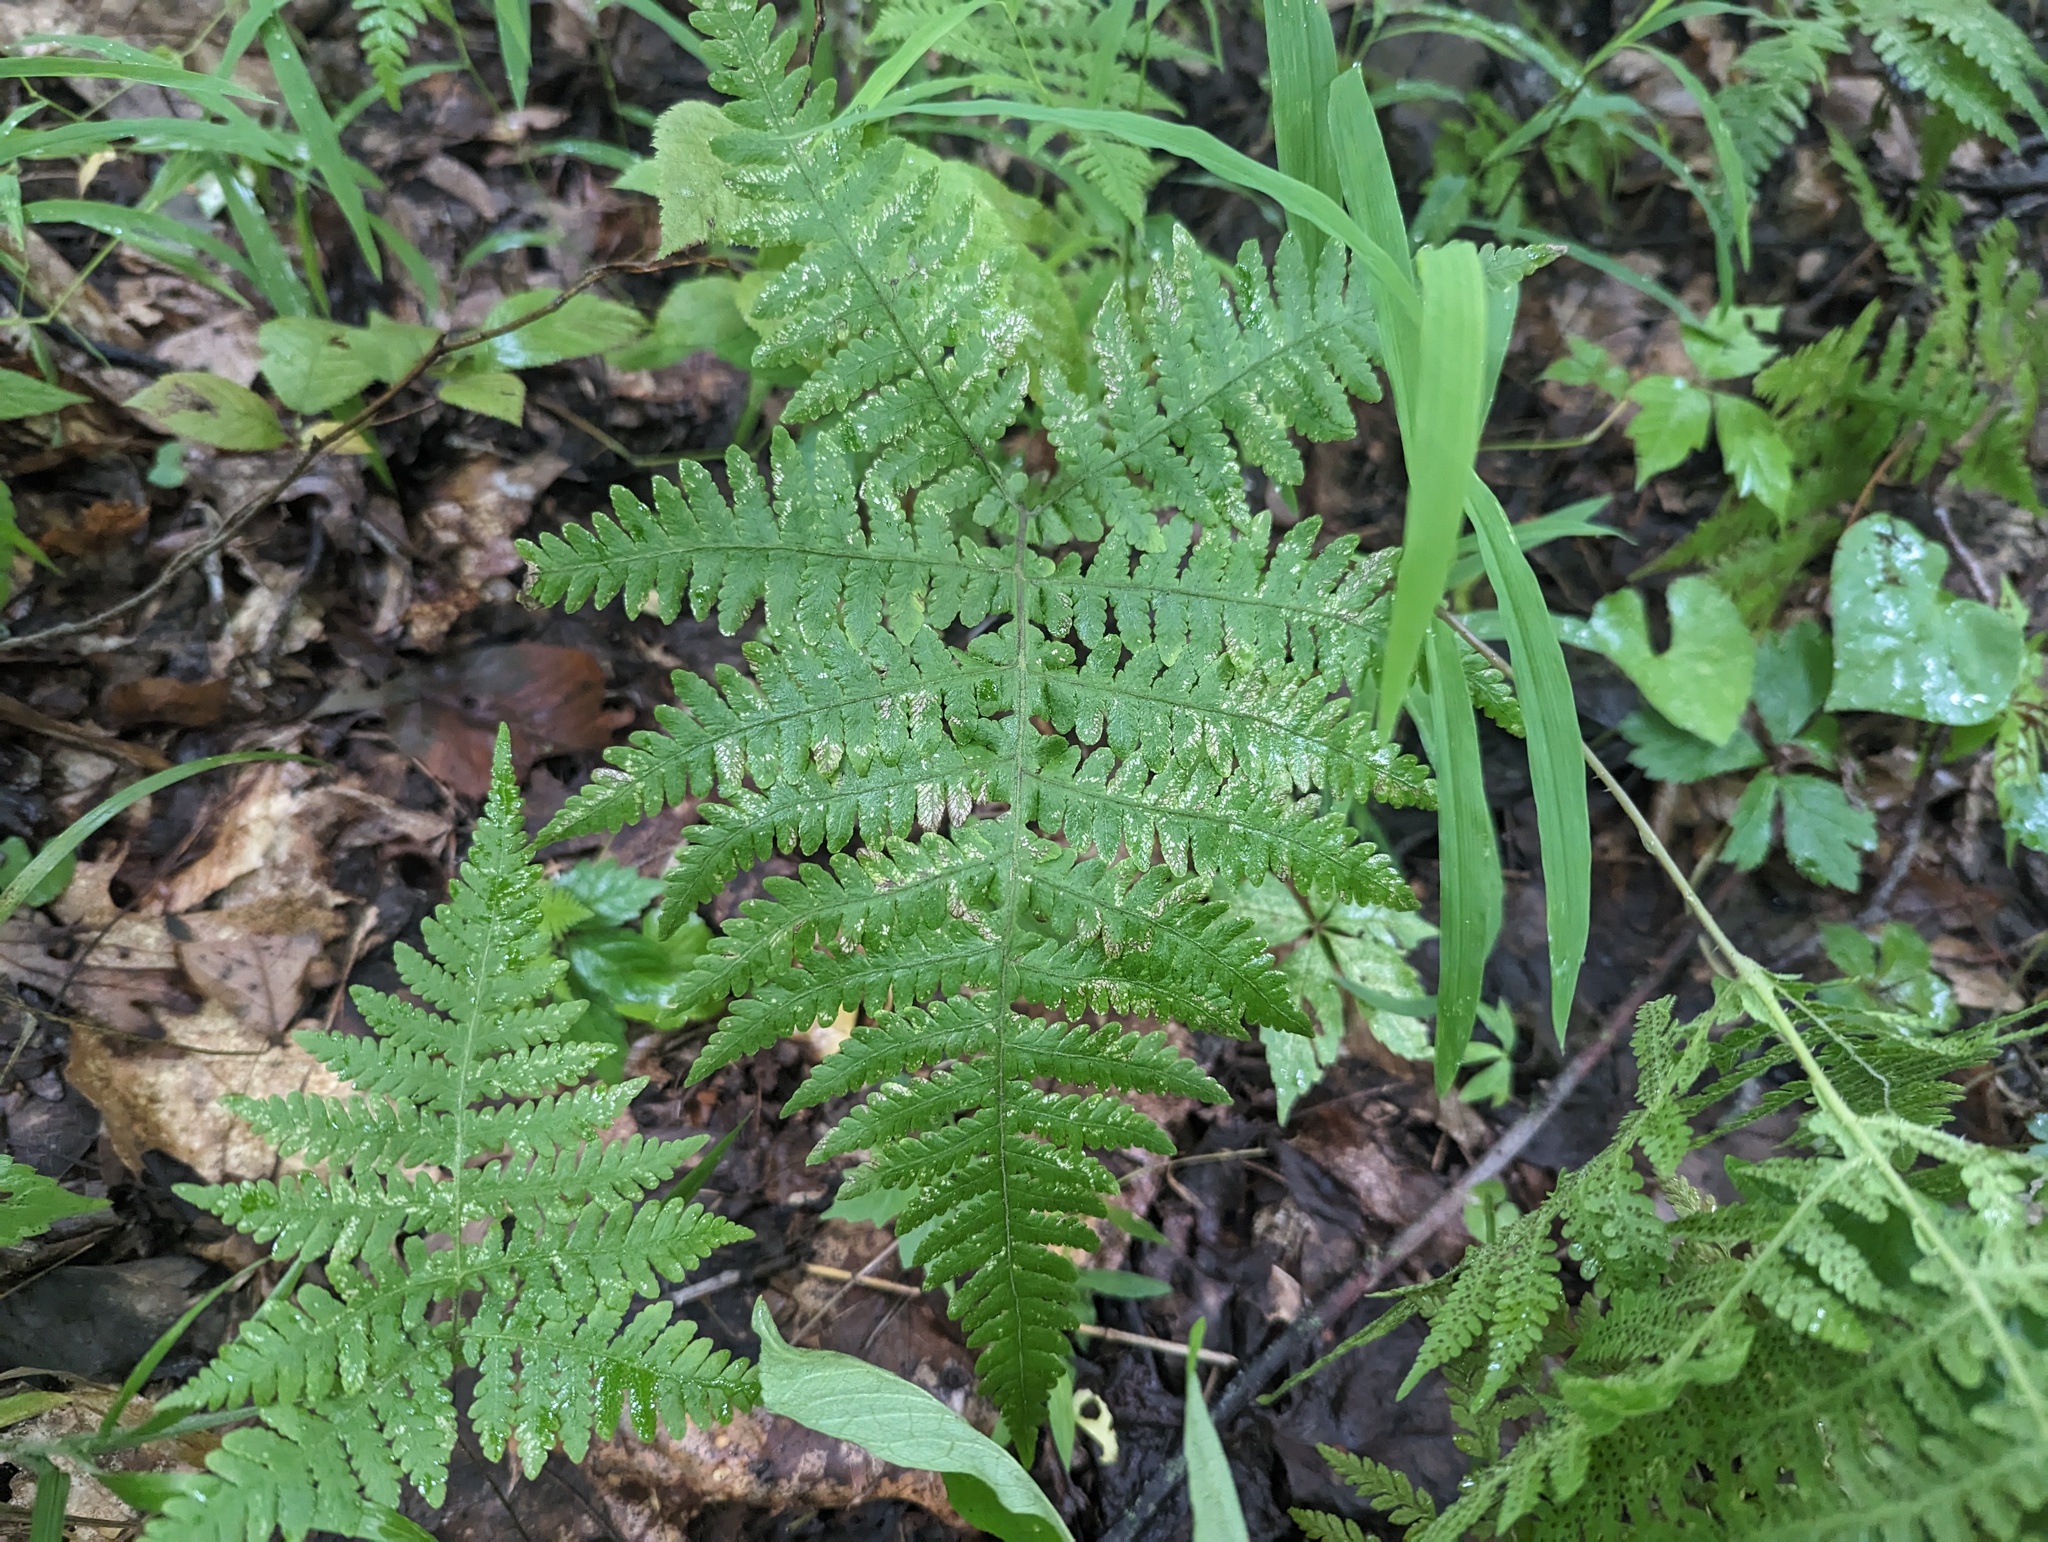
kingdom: Plantae
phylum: Tracheophyta
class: Polypodiopsida
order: Polypodiales
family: Thelypteridaceae
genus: Phegopteris
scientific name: Phegopteris hexagonoptera
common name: Broad beech fern
